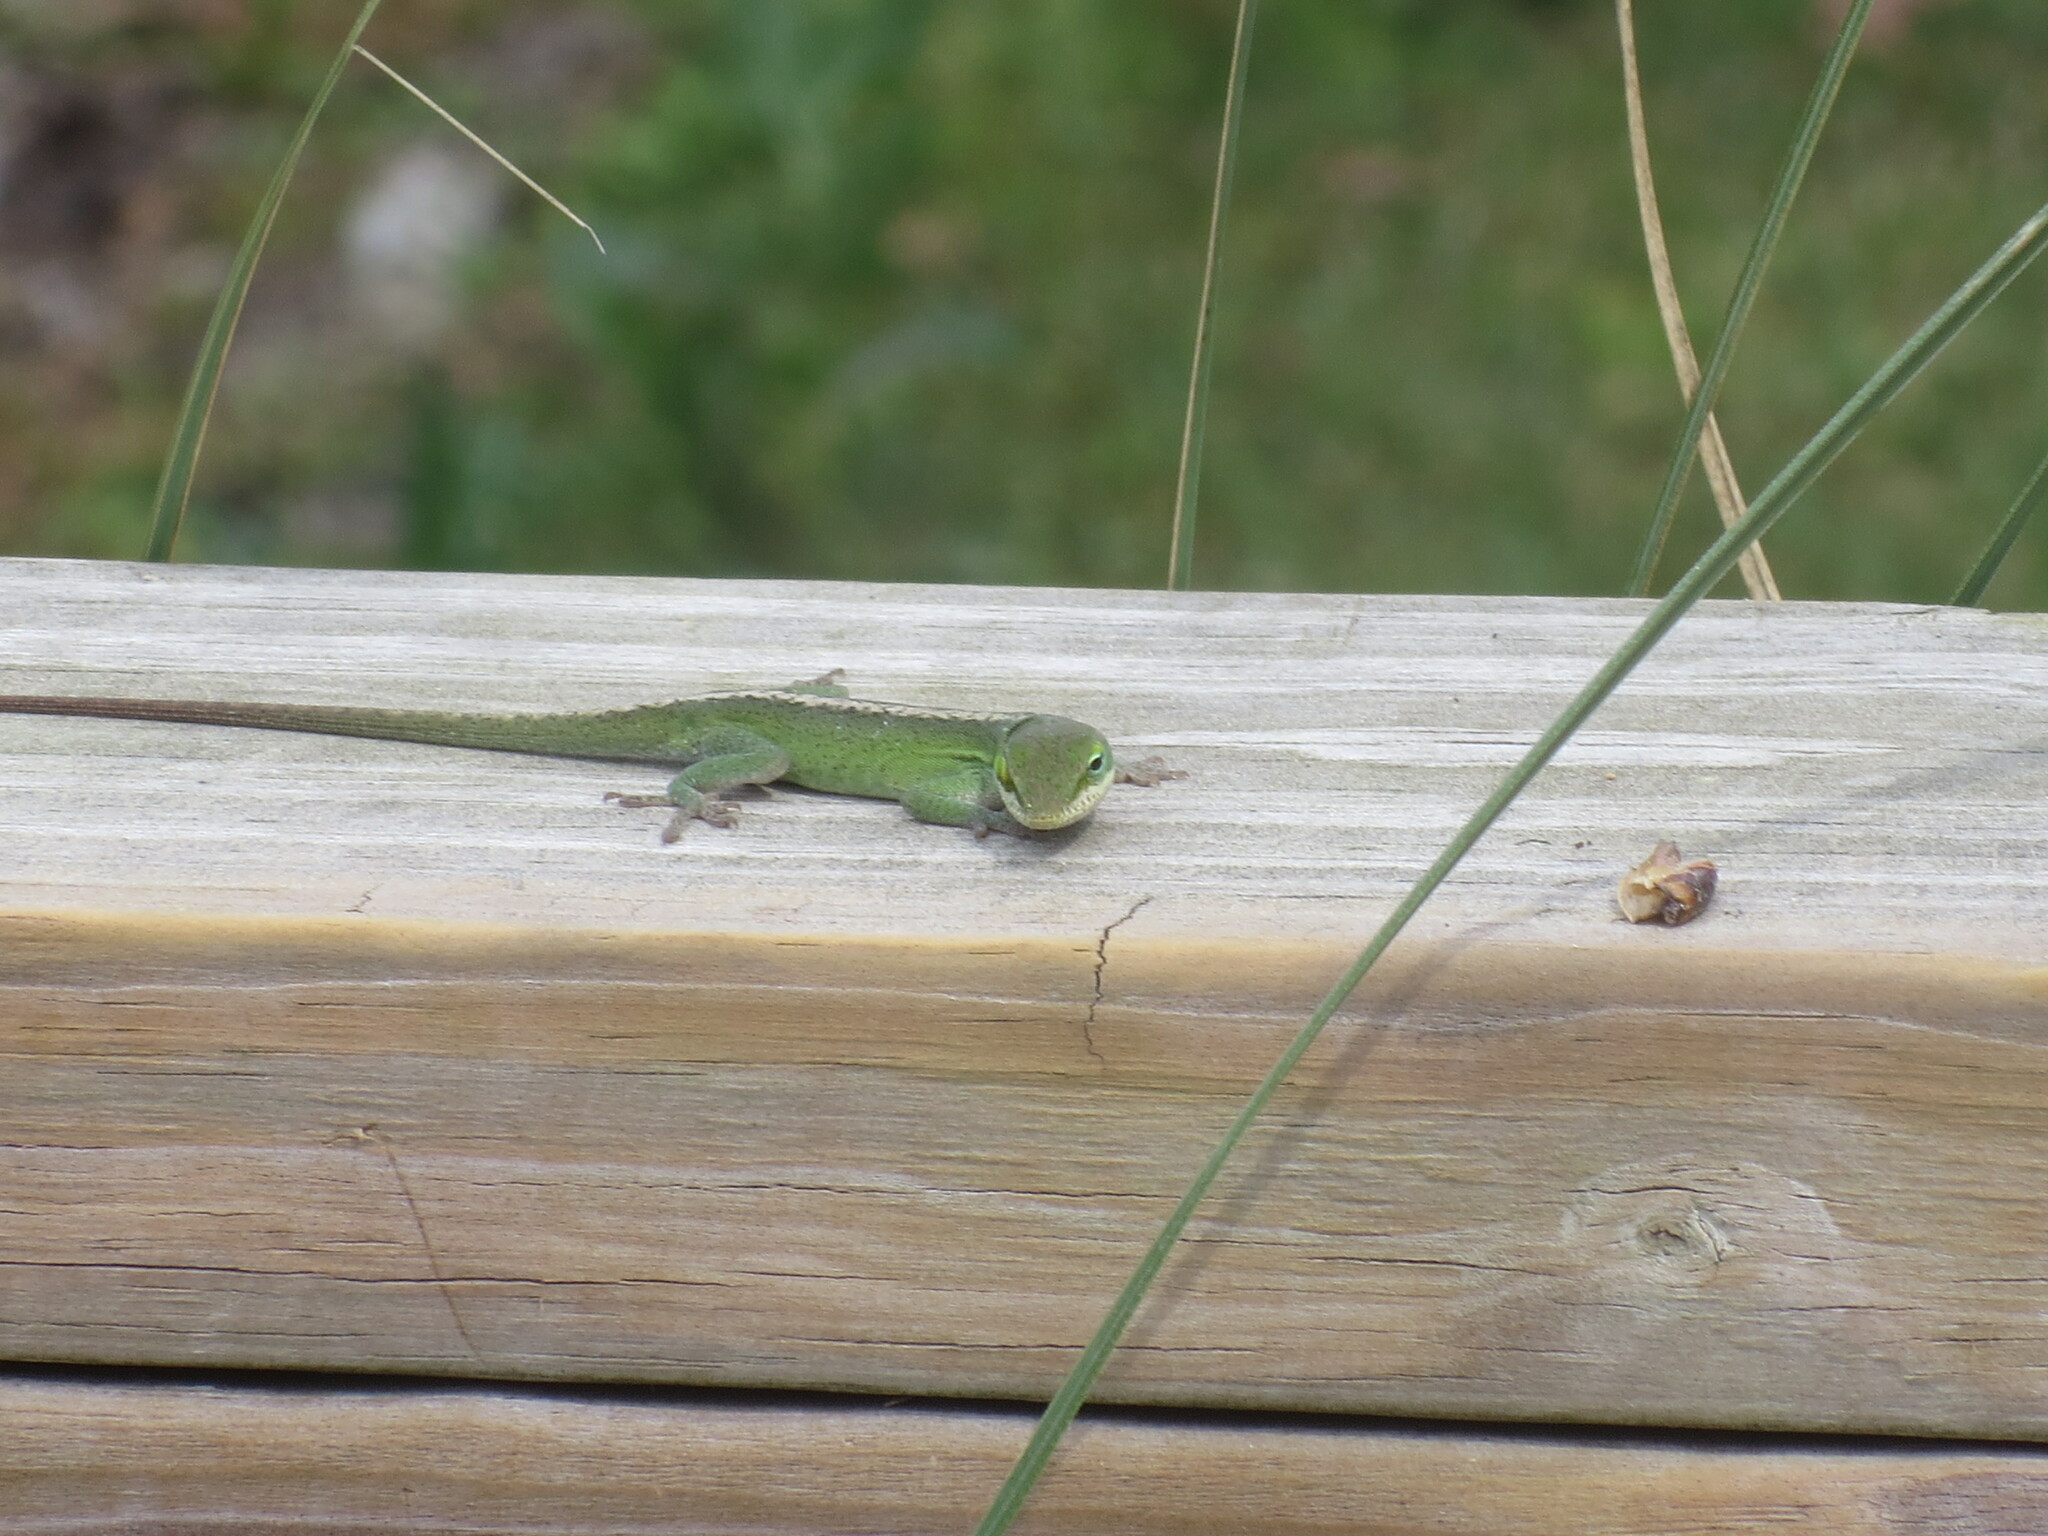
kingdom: Animalia
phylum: Chordata
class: Squamata
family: Dactyloidae
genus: Anolis
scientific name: Anolis carolinensis
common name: Green anole
